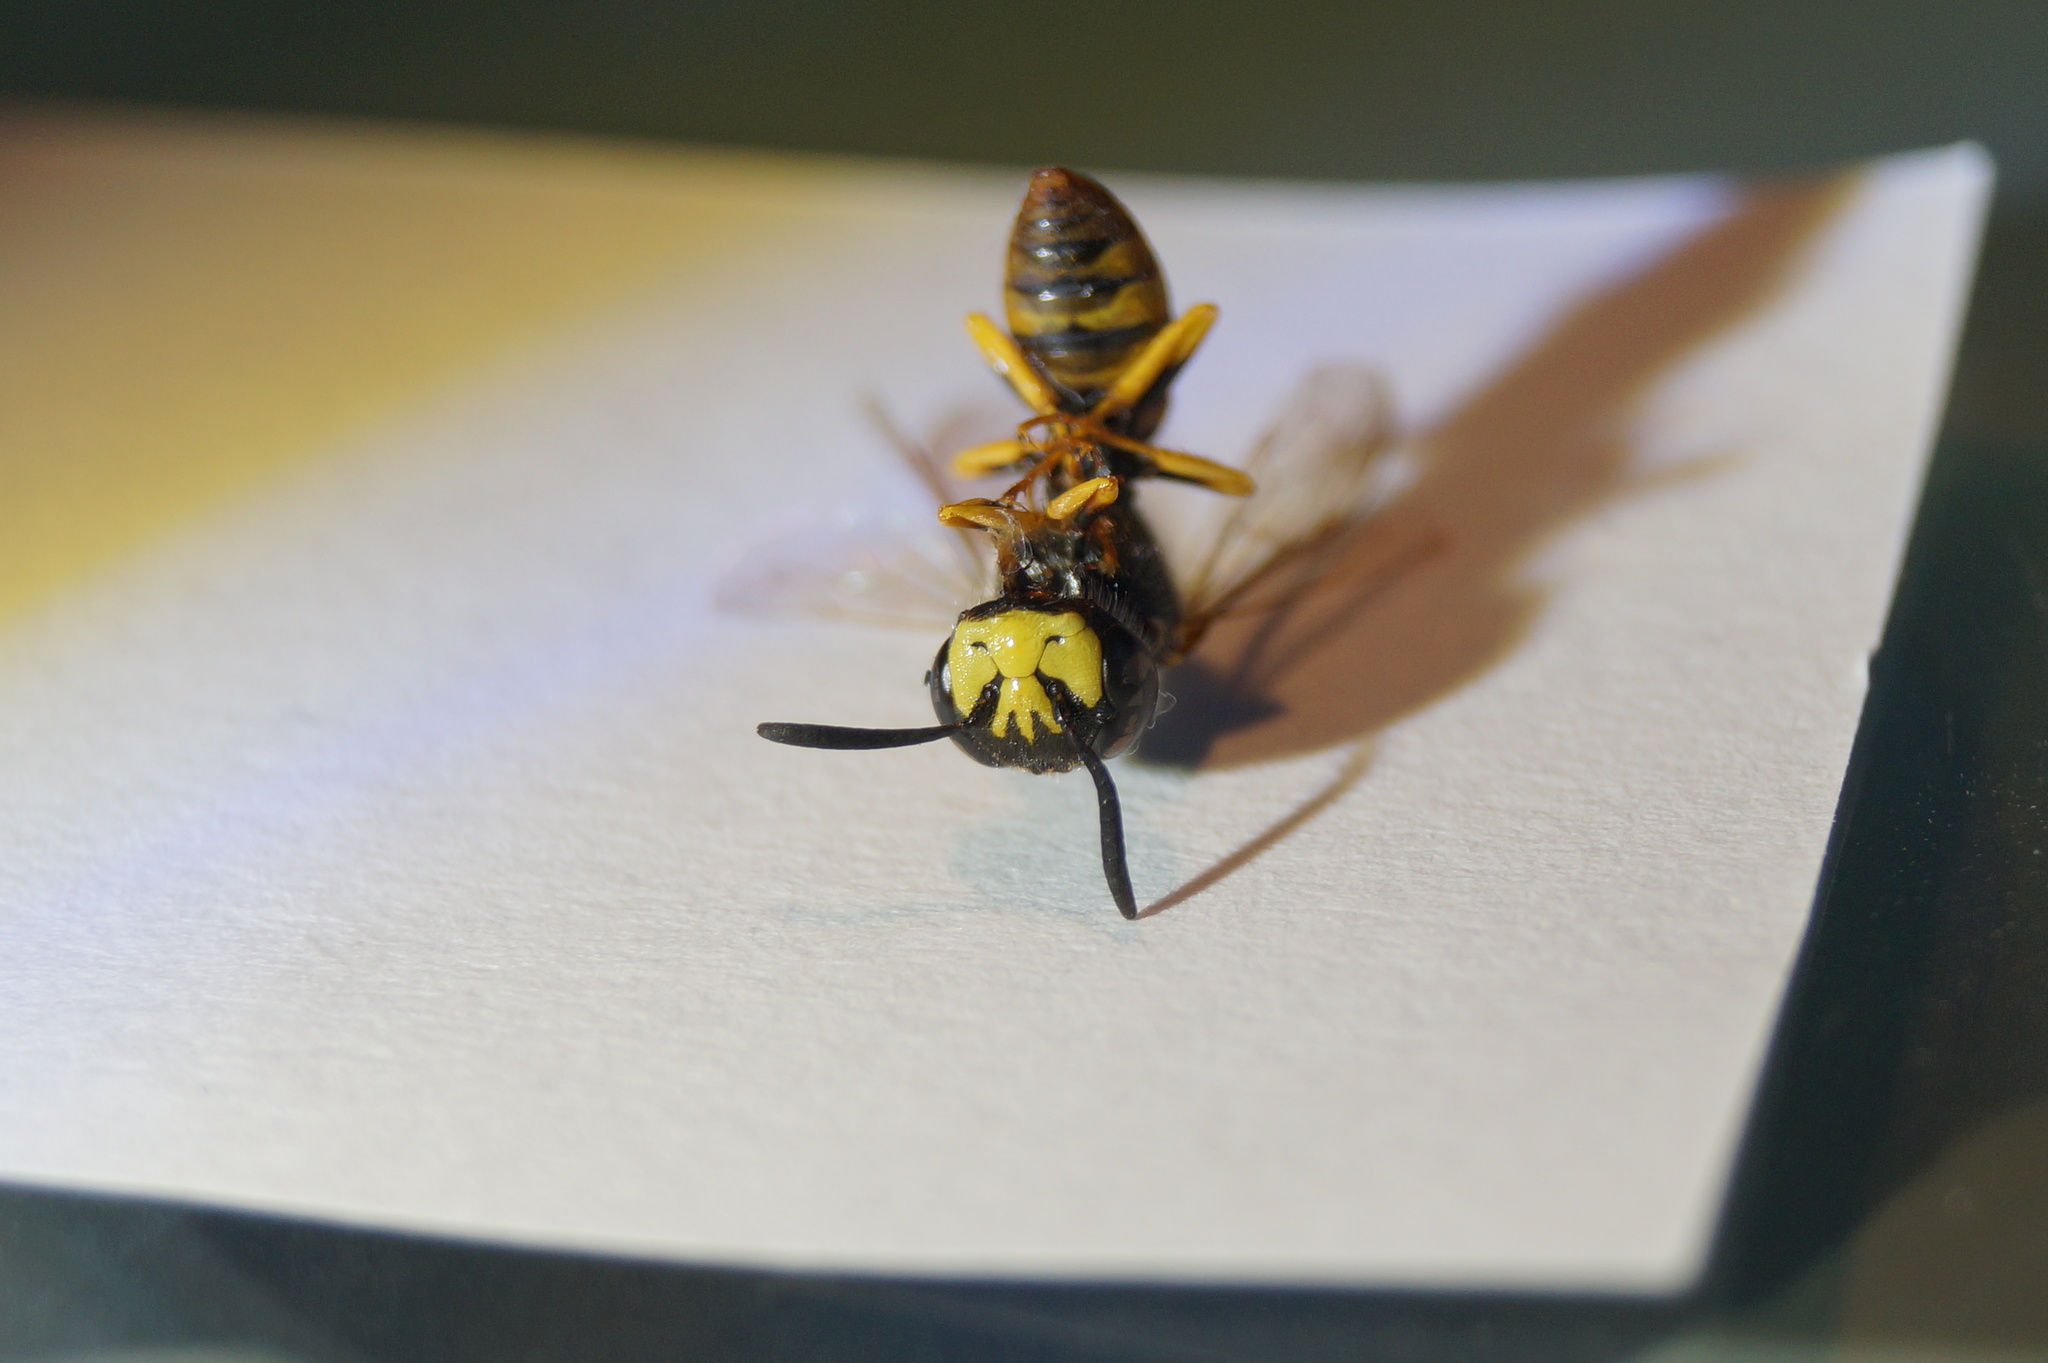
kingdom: Animalia
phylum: Arthropoda
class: Insecta
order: Hymenoptera
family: Crabronidae
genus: Philanthus
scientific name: Philanthus triangulum
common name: Bee wolf
